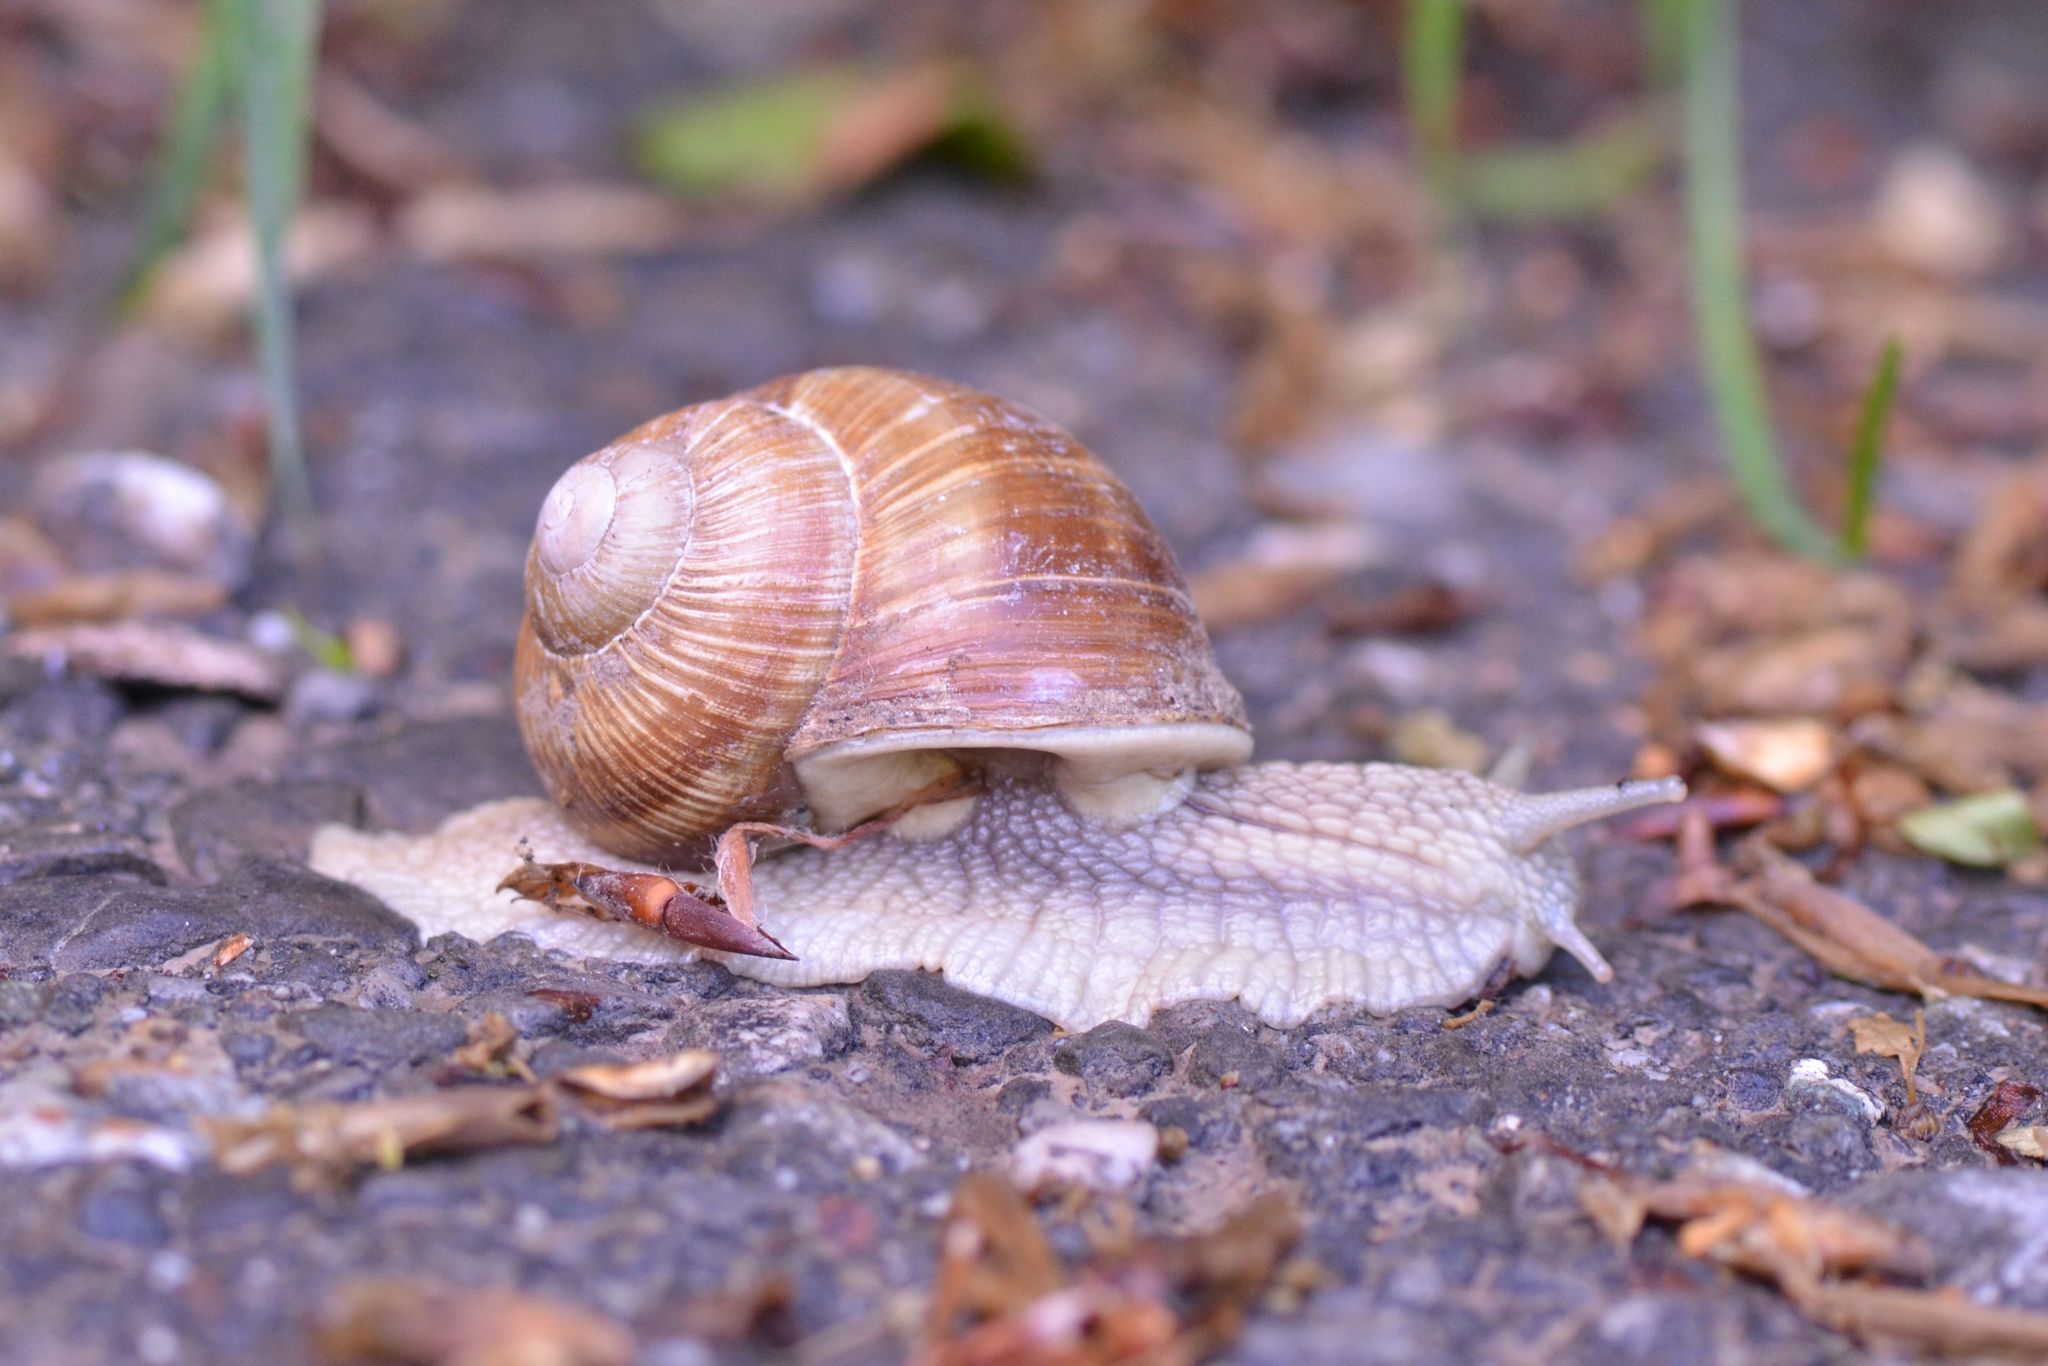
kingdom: Animalia
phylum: Mollusca
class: Gastropoda
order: Stylommatophora
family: Helicidae
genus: Helix
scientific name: Helix pomatia
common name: Roman snail
